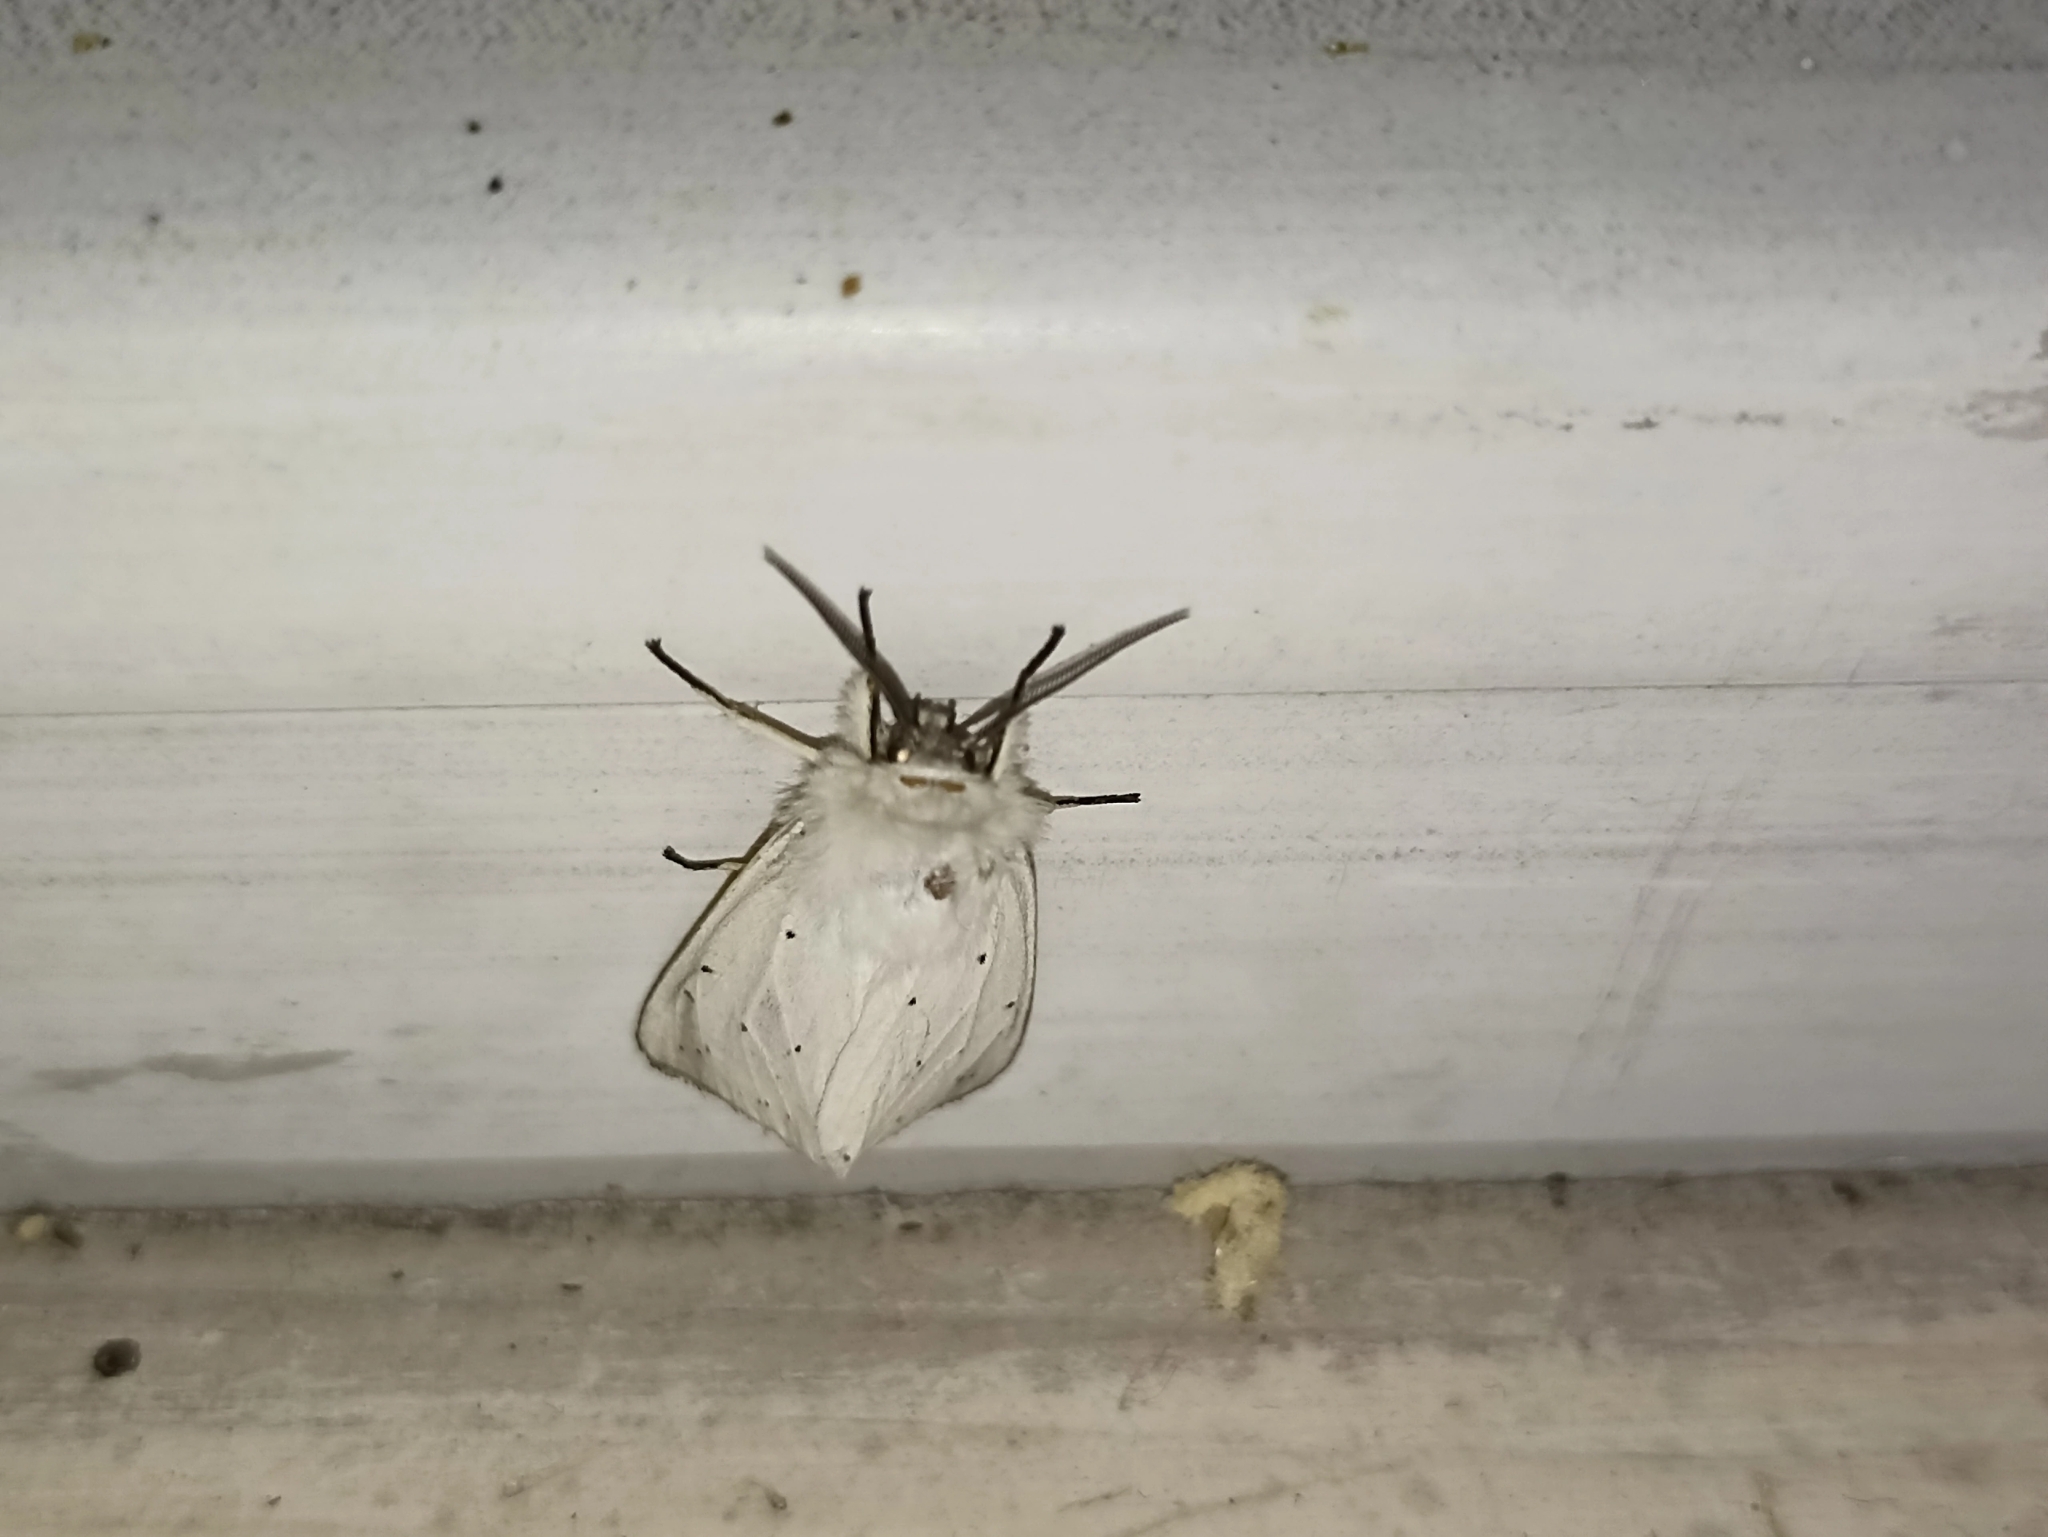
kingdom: Animalia
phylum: Arthropoda
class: Insecta
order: Lepidoptera
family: Erebidae
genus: Spilosoma
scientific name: Spilosoma lubricipeda
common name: White ermine
